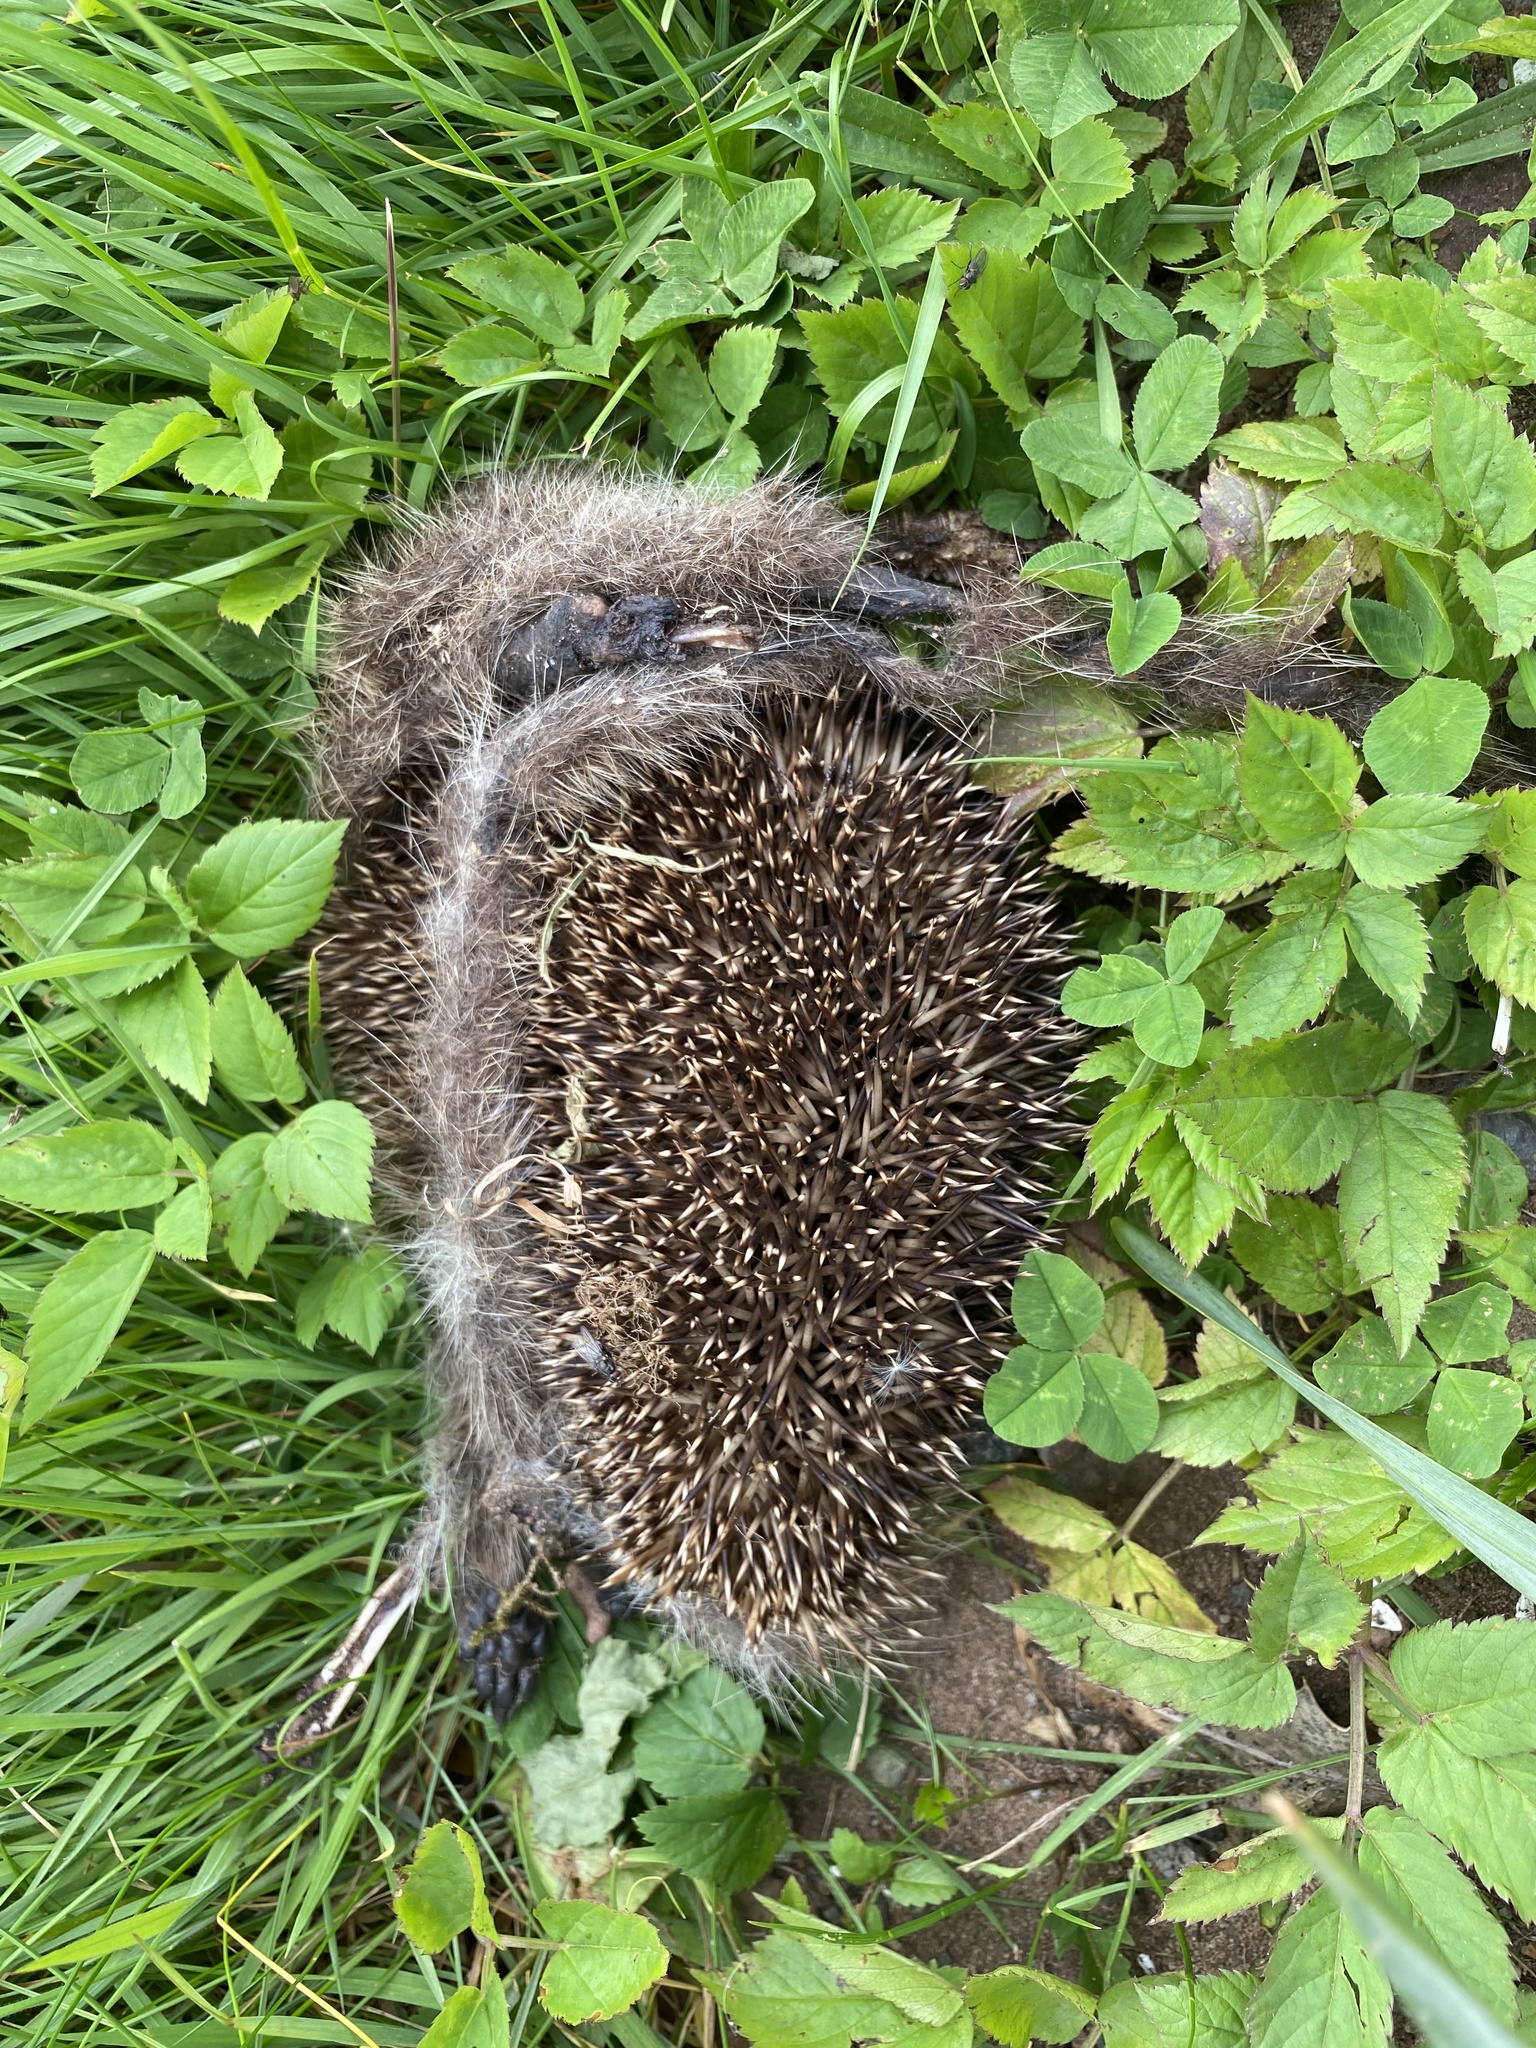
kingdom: Animalia
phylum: Chordata
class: Mammalia
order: Erinaceomorpha
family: Erinaceidae
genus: Erinaceus
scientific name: Erinaceus europaeus
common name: West european hedgehog
